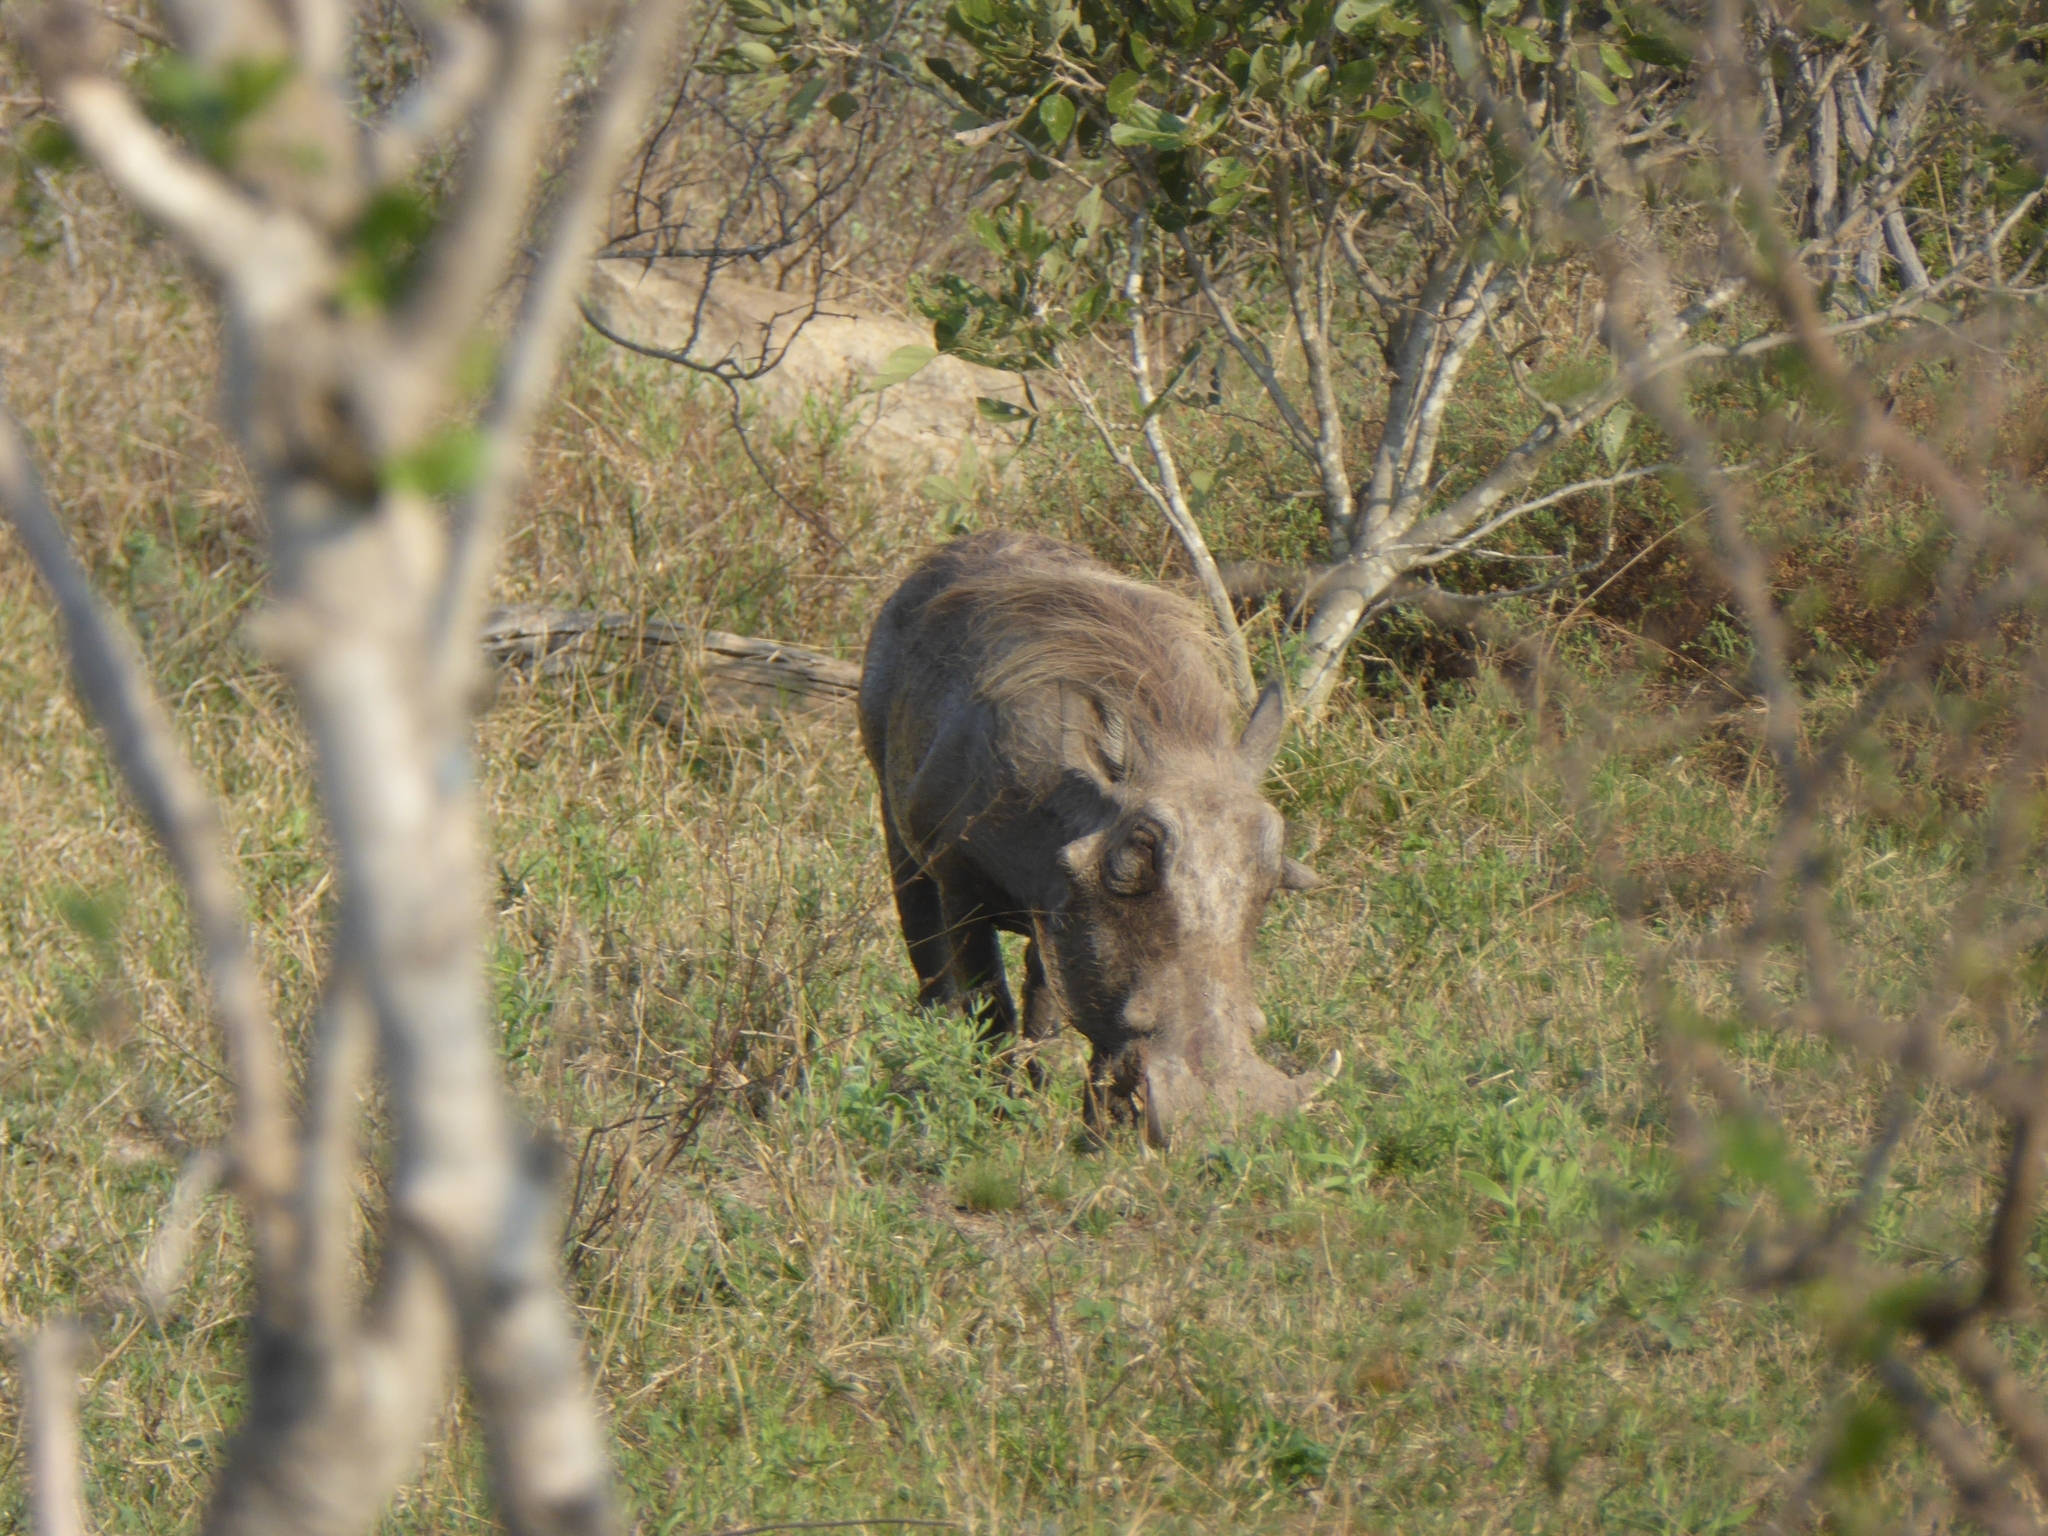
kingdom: Animalia
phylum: Chordata
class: Mammalia
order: Artiodactyla
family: Suidae
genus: Phacochoerus
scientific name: Phacochoerus africanus
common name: Common warthog
